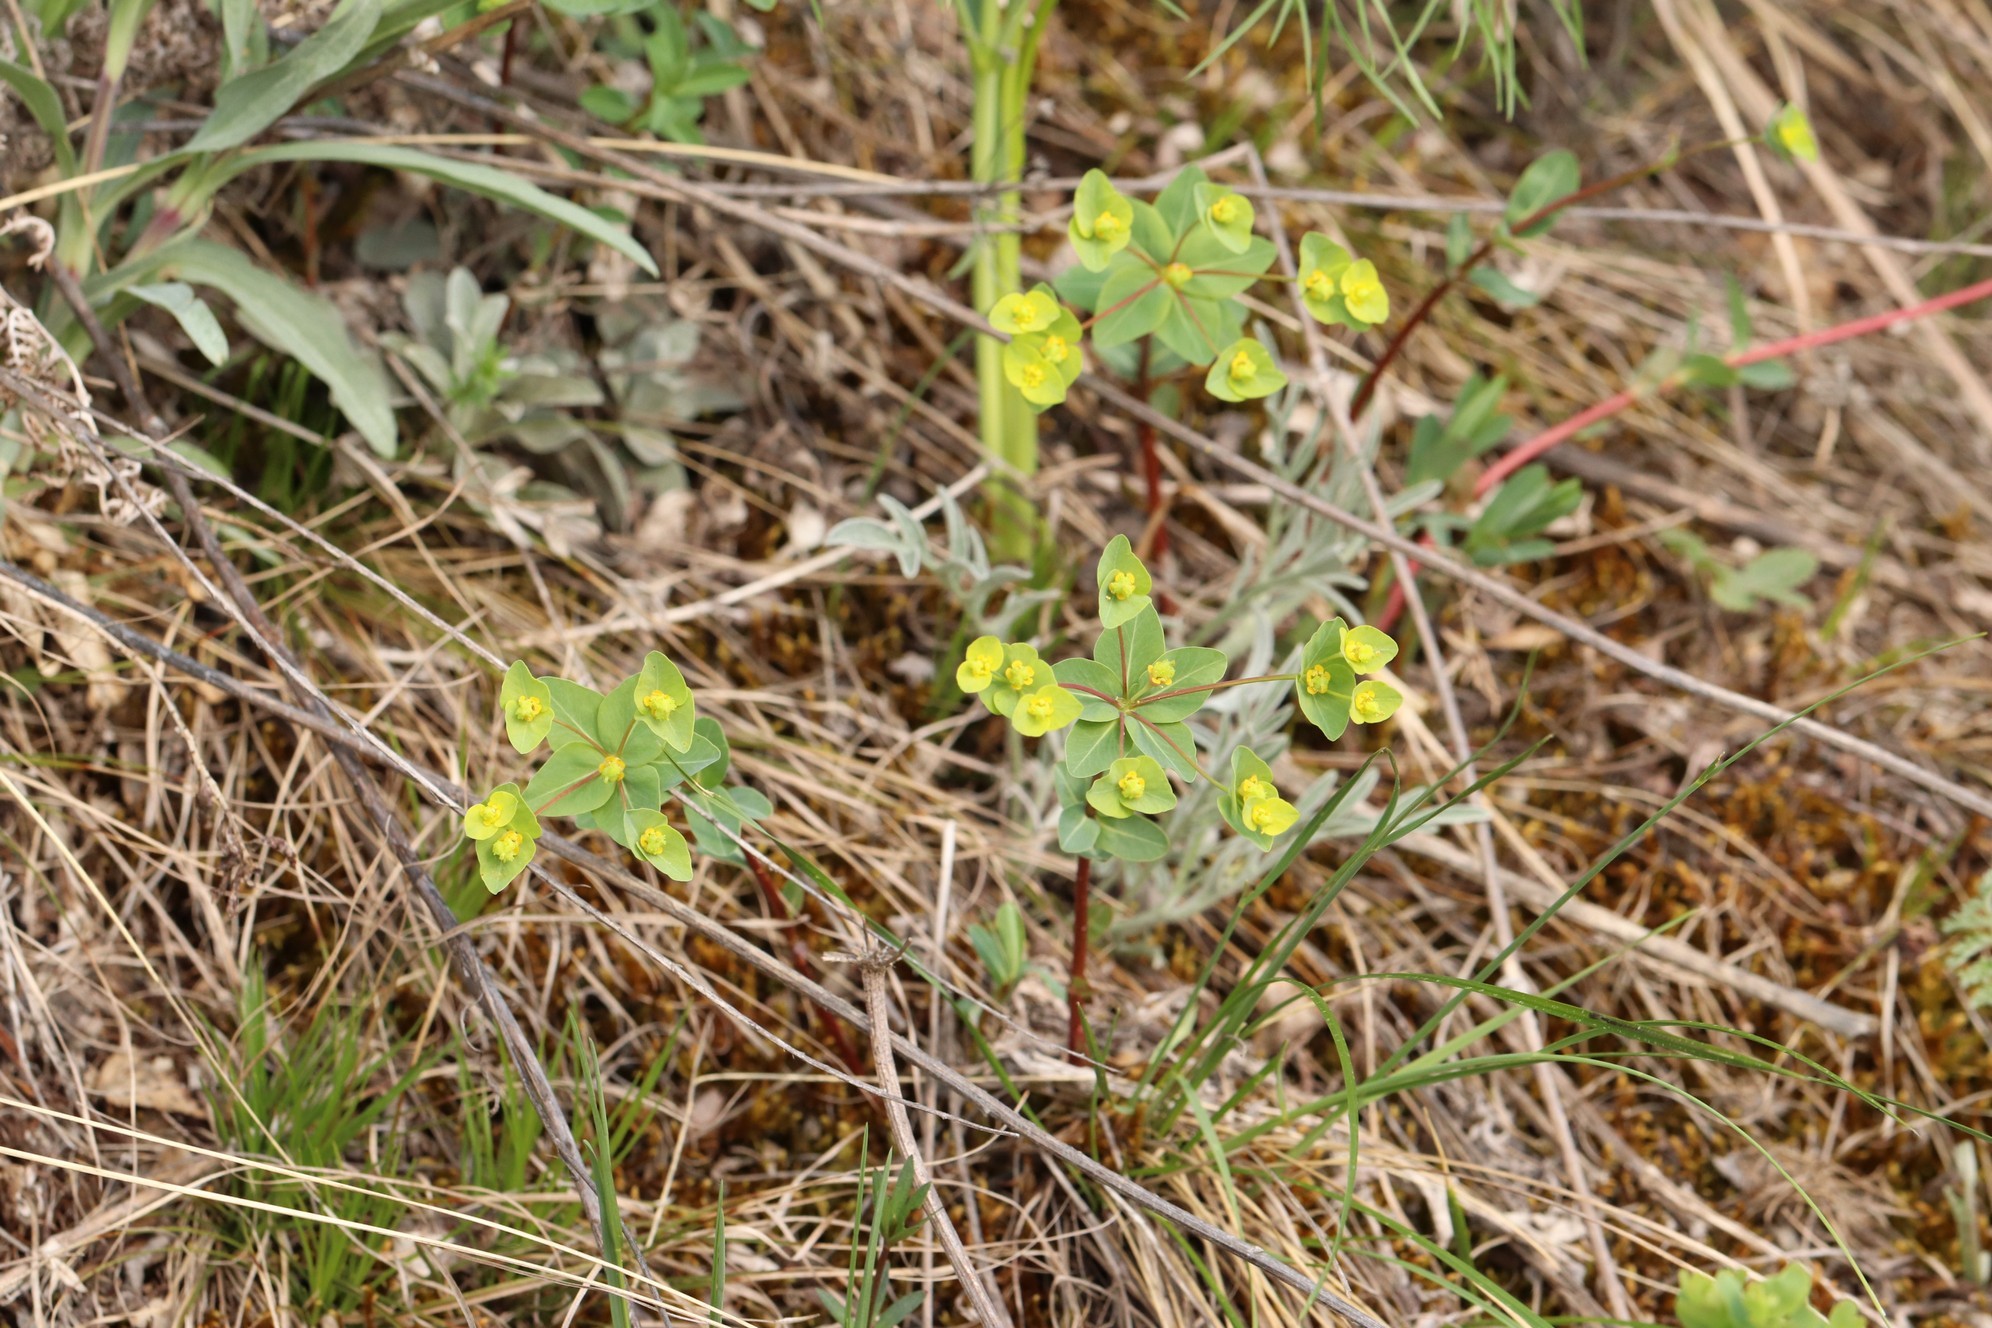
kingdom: Plantae
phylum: Tracheophyta
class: Magnoliopsida
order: Malpighiales
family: Euphorbiaceae
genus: Euphorbia
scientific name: Euphorbia altaica
